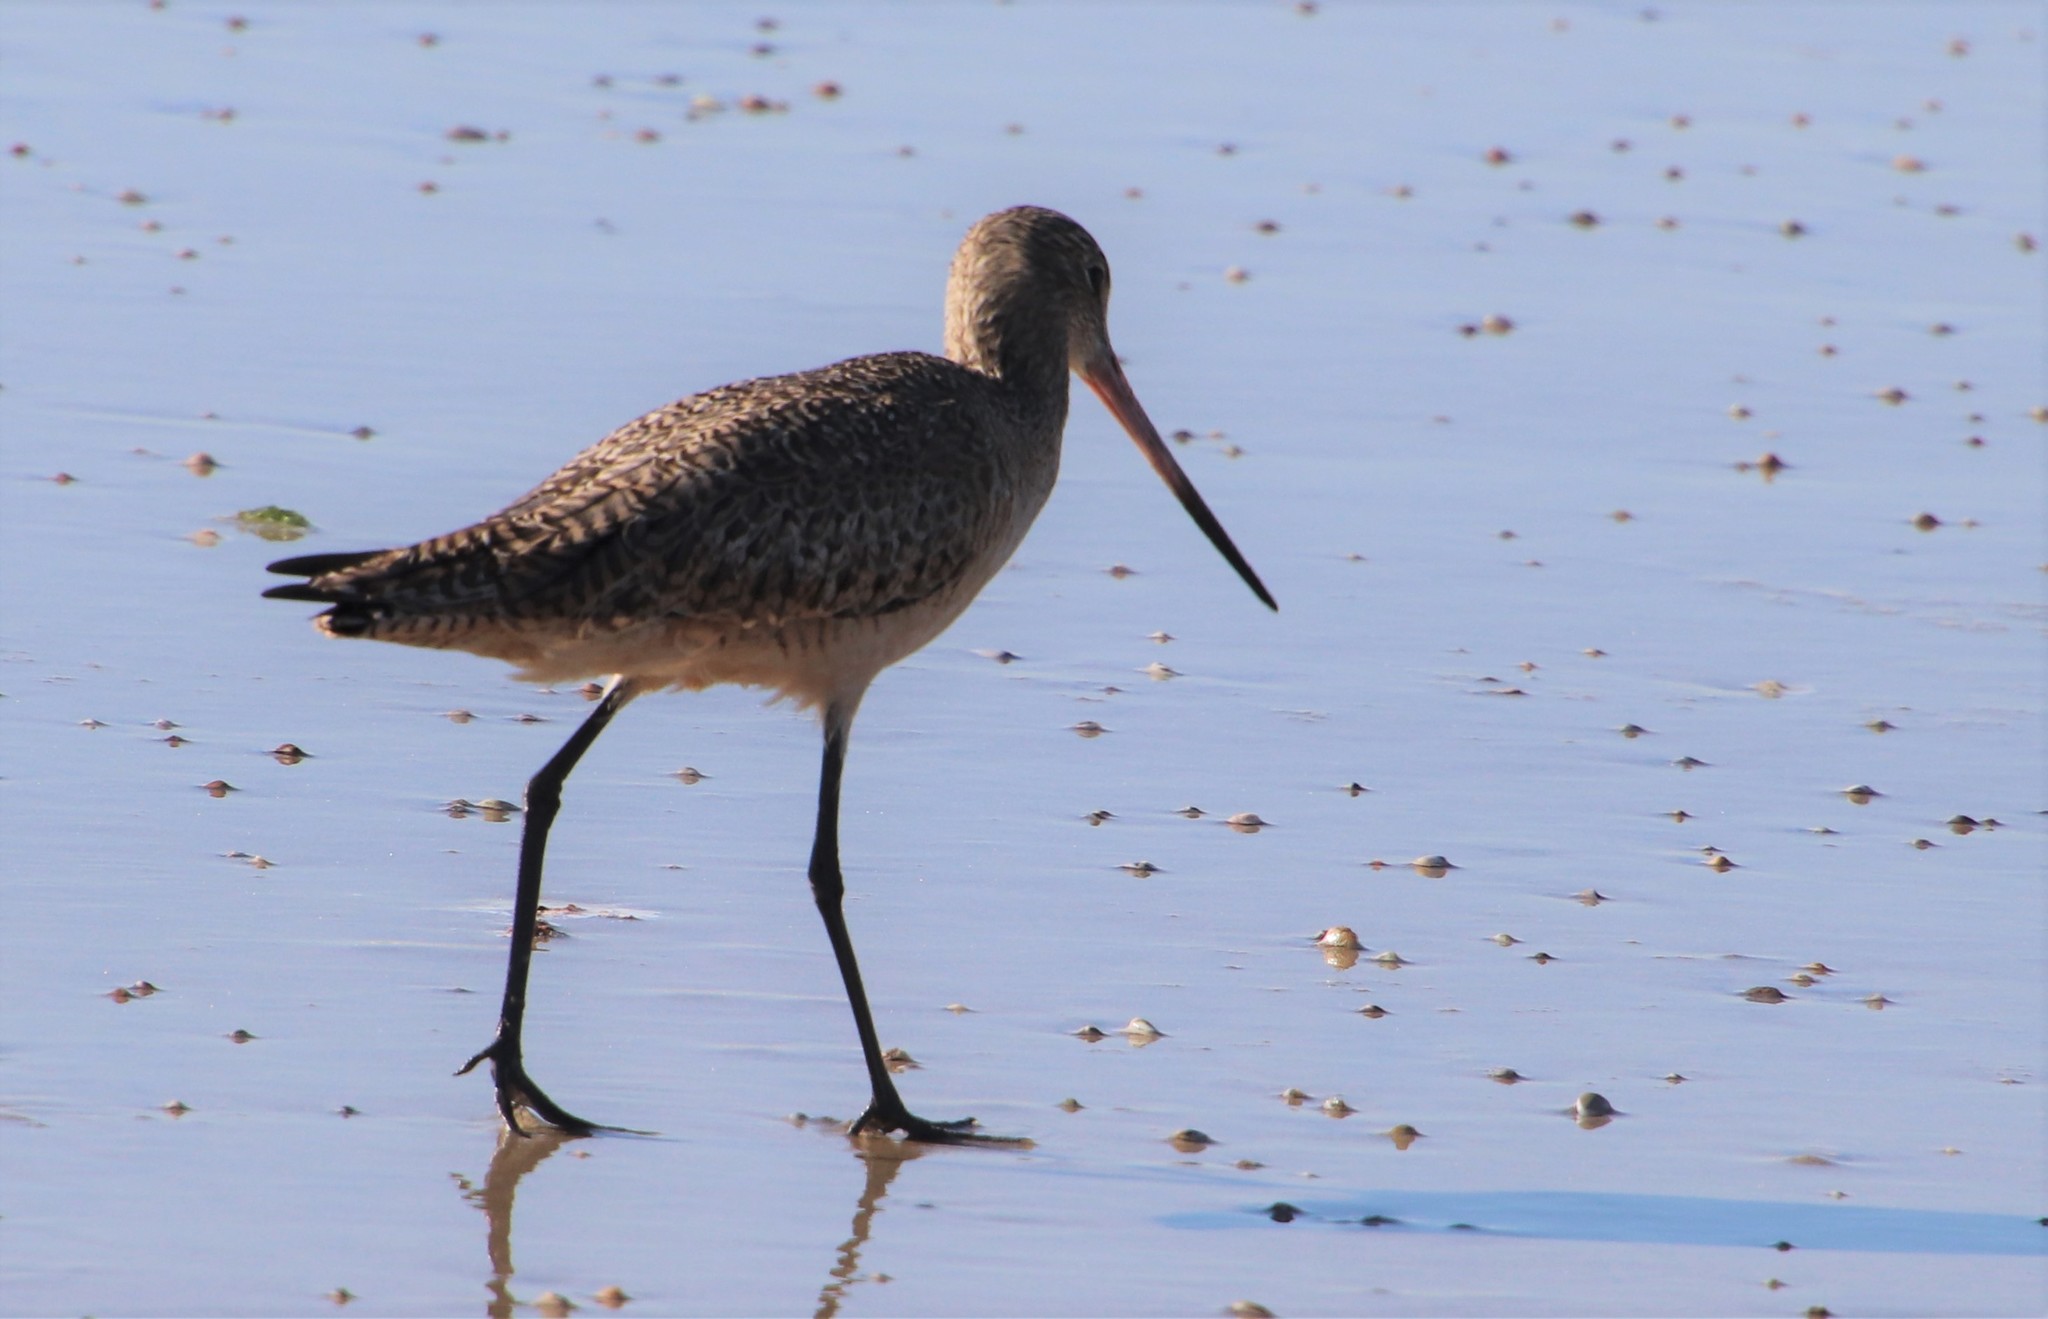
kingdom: Animalia
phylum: Chordata
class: Aves
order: Charadriiformes
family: Scolopacidae
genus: Limosa
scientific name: Limosa fedoa
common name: Marbled godwit
